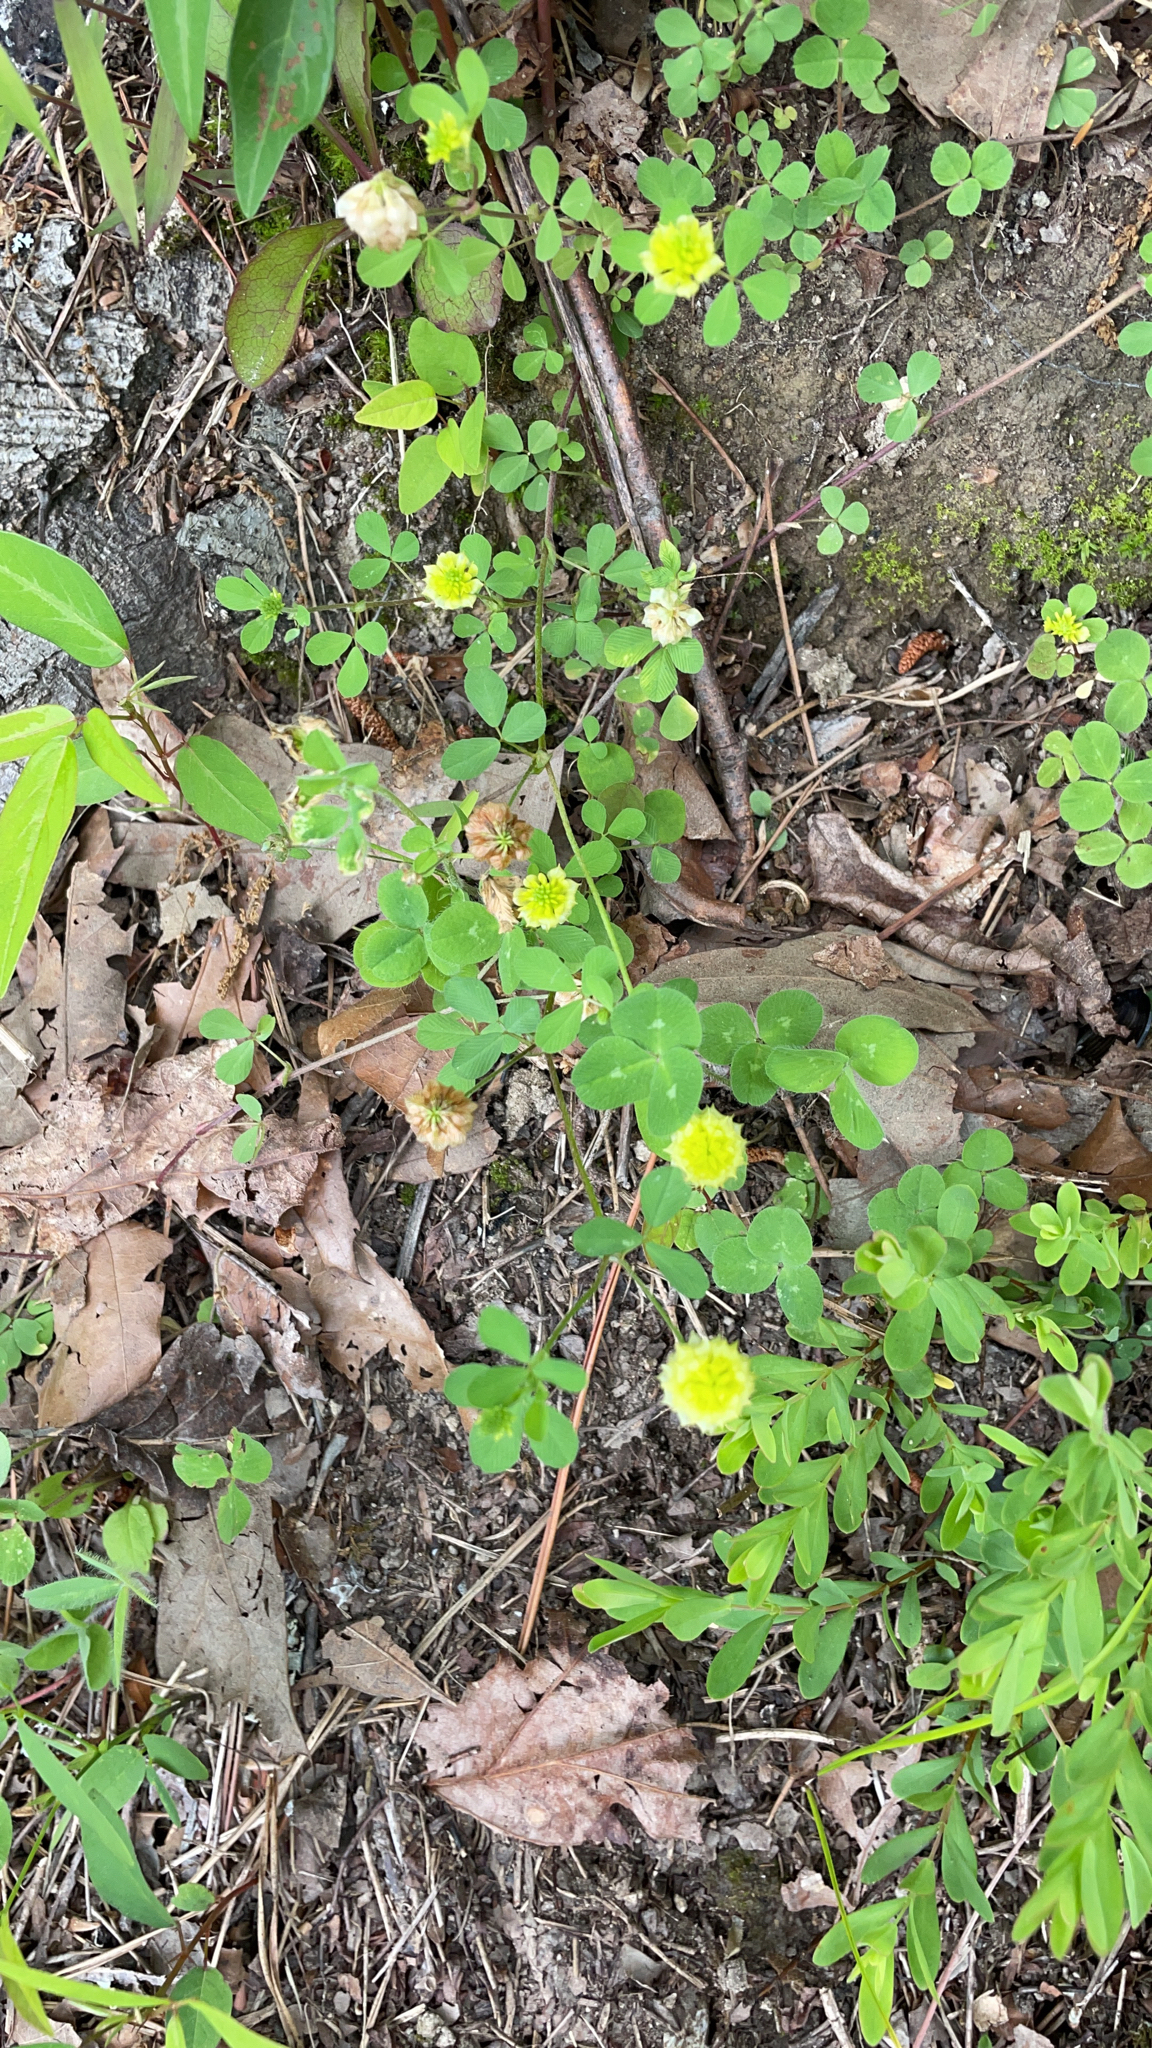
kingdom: Plantae
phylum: Tracheophyta
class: Magnoliopsida
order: Fabales
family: Fabaceae
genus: Trifolium
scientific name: Trifolium campestre
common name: Field clover
